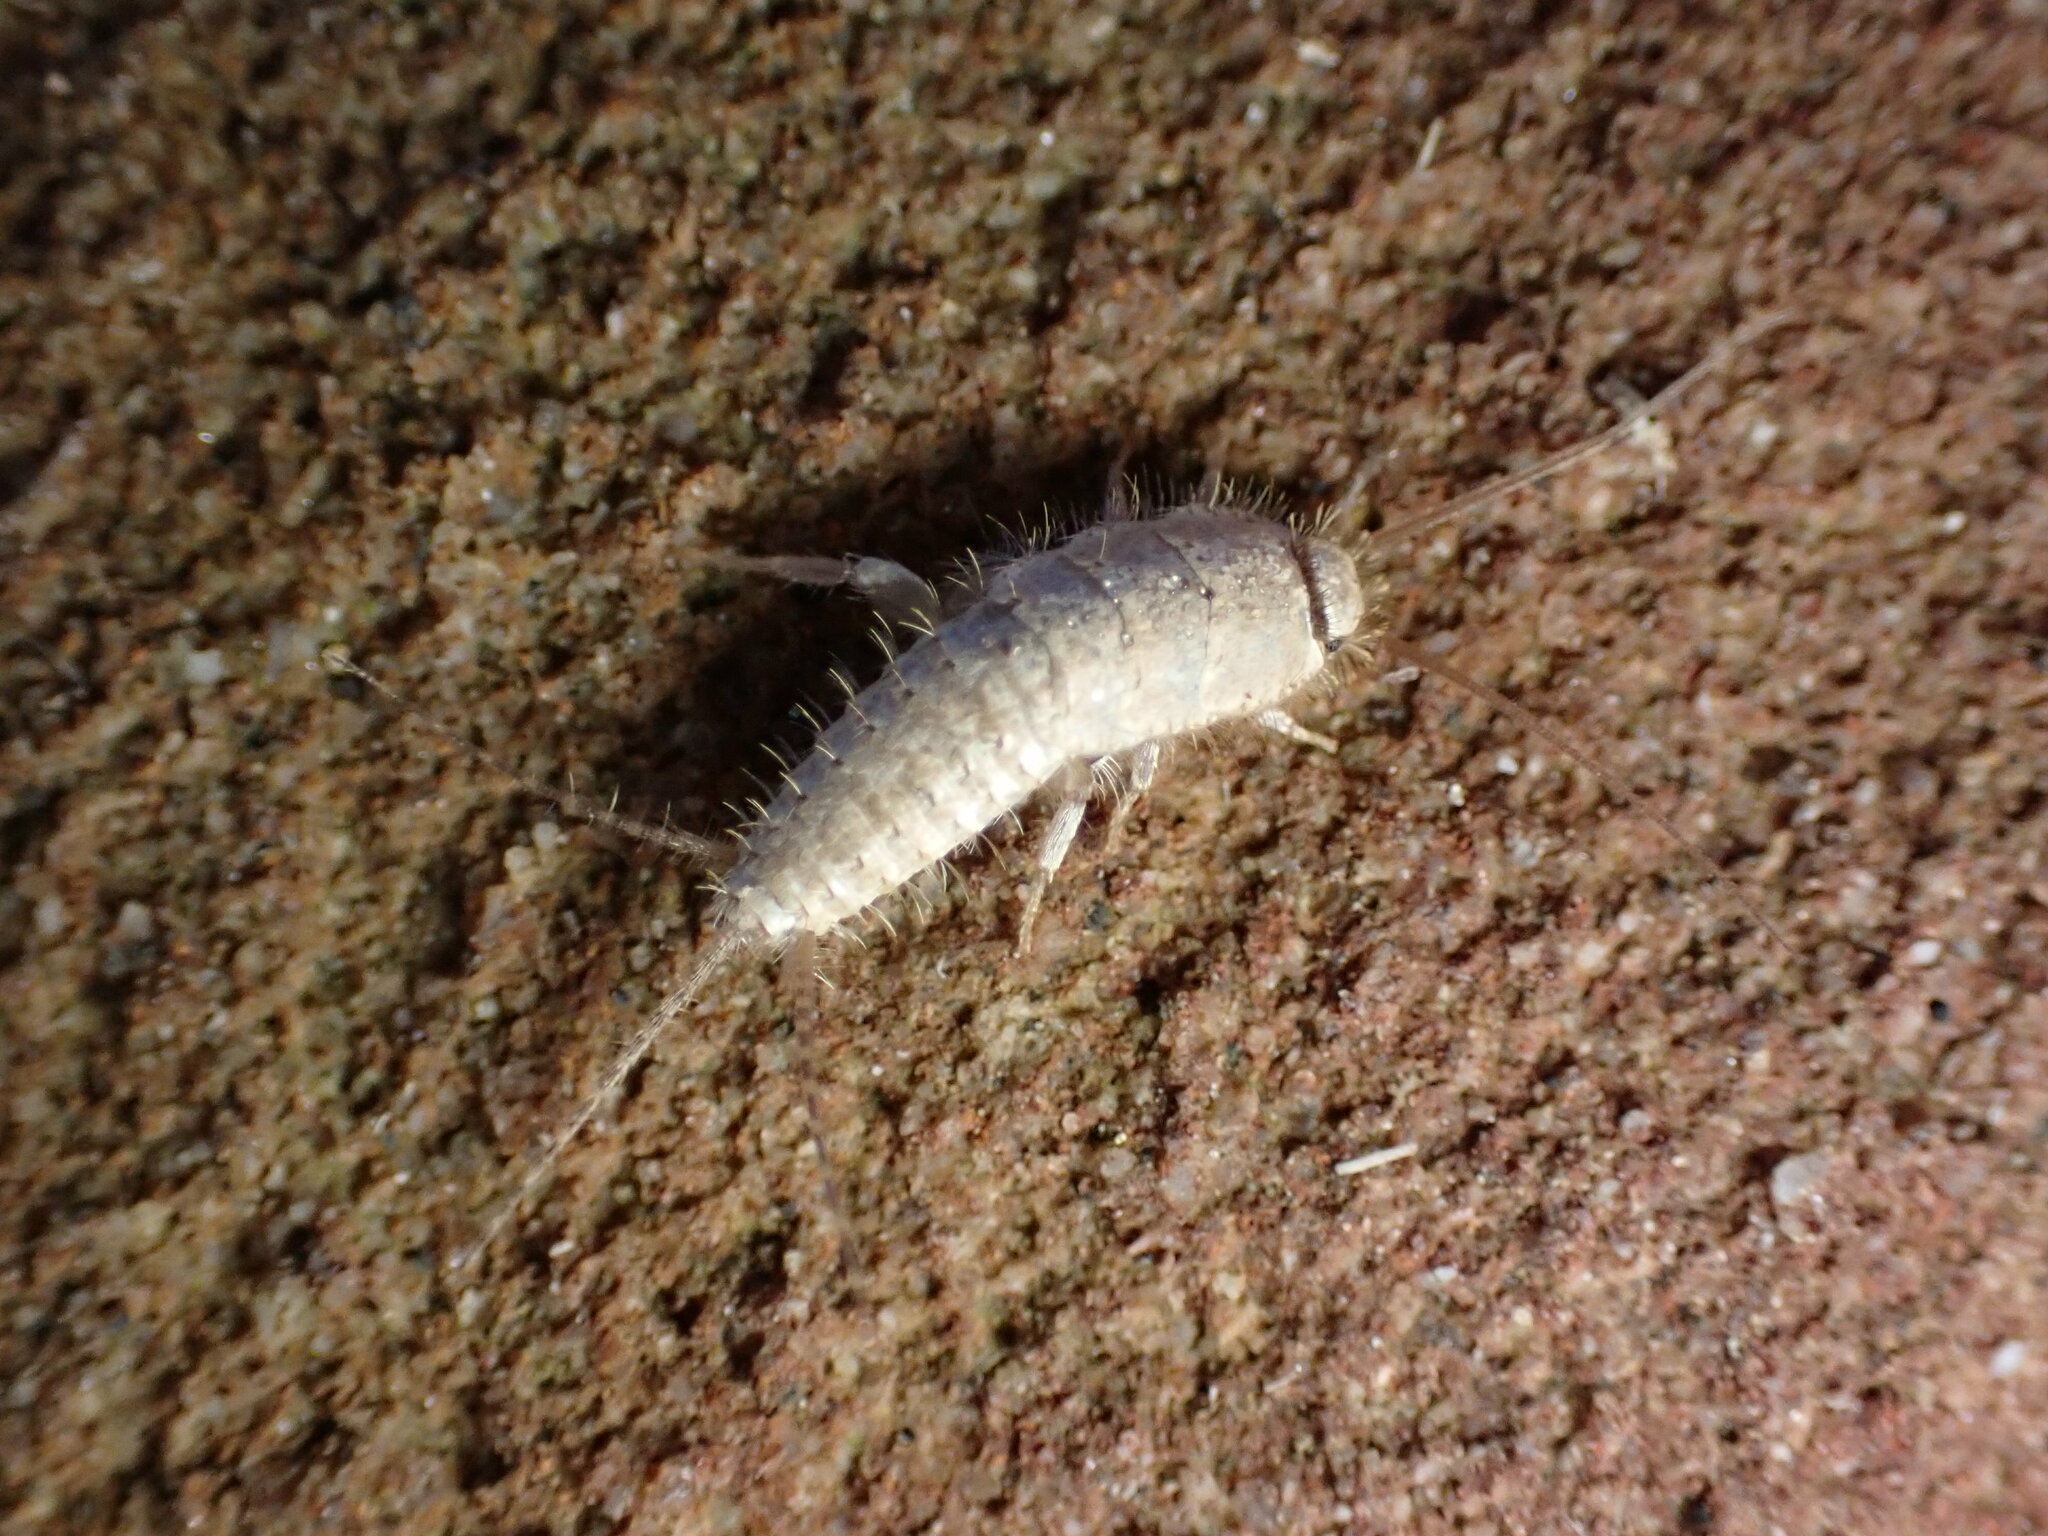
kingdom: Animalia
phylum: Arthropoda
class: Insecta
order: Zygentoma
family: Lepismatidae
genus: Ctenolepisma
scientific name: Ctenolepisma ciliata
